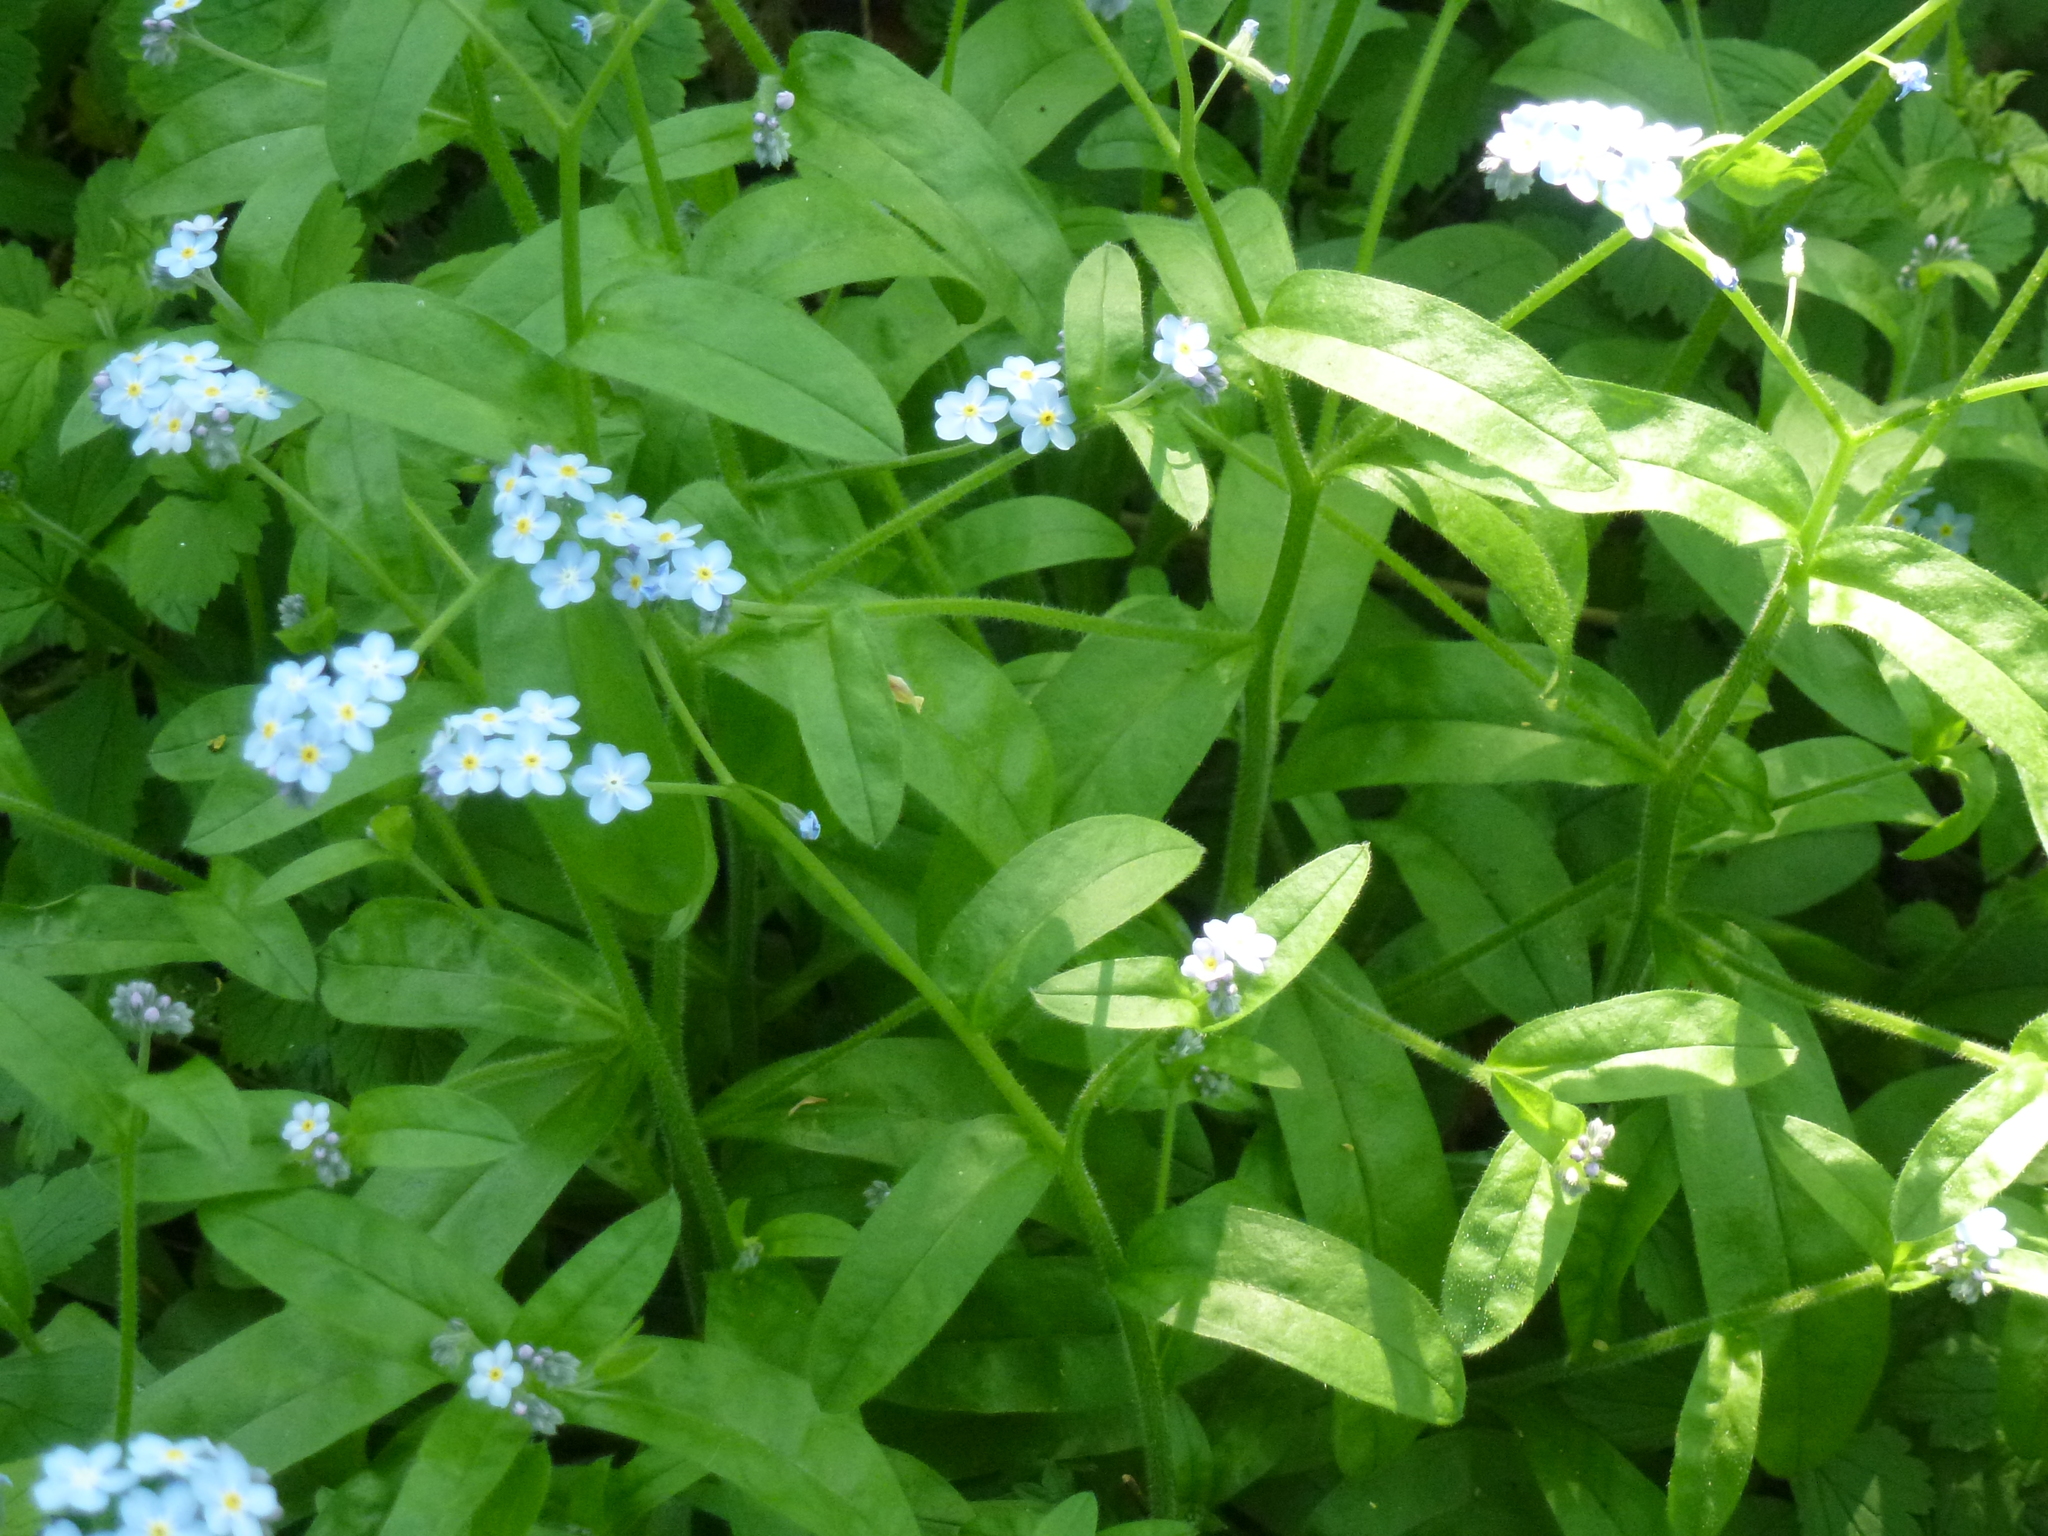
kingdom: Plantae
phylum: Tracheophyta
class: Magnoliopsida
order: Boraginales
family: Boraginaceae
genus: Myosotis
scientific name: Myosotis sylvatica
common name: Wood forget-me-not
